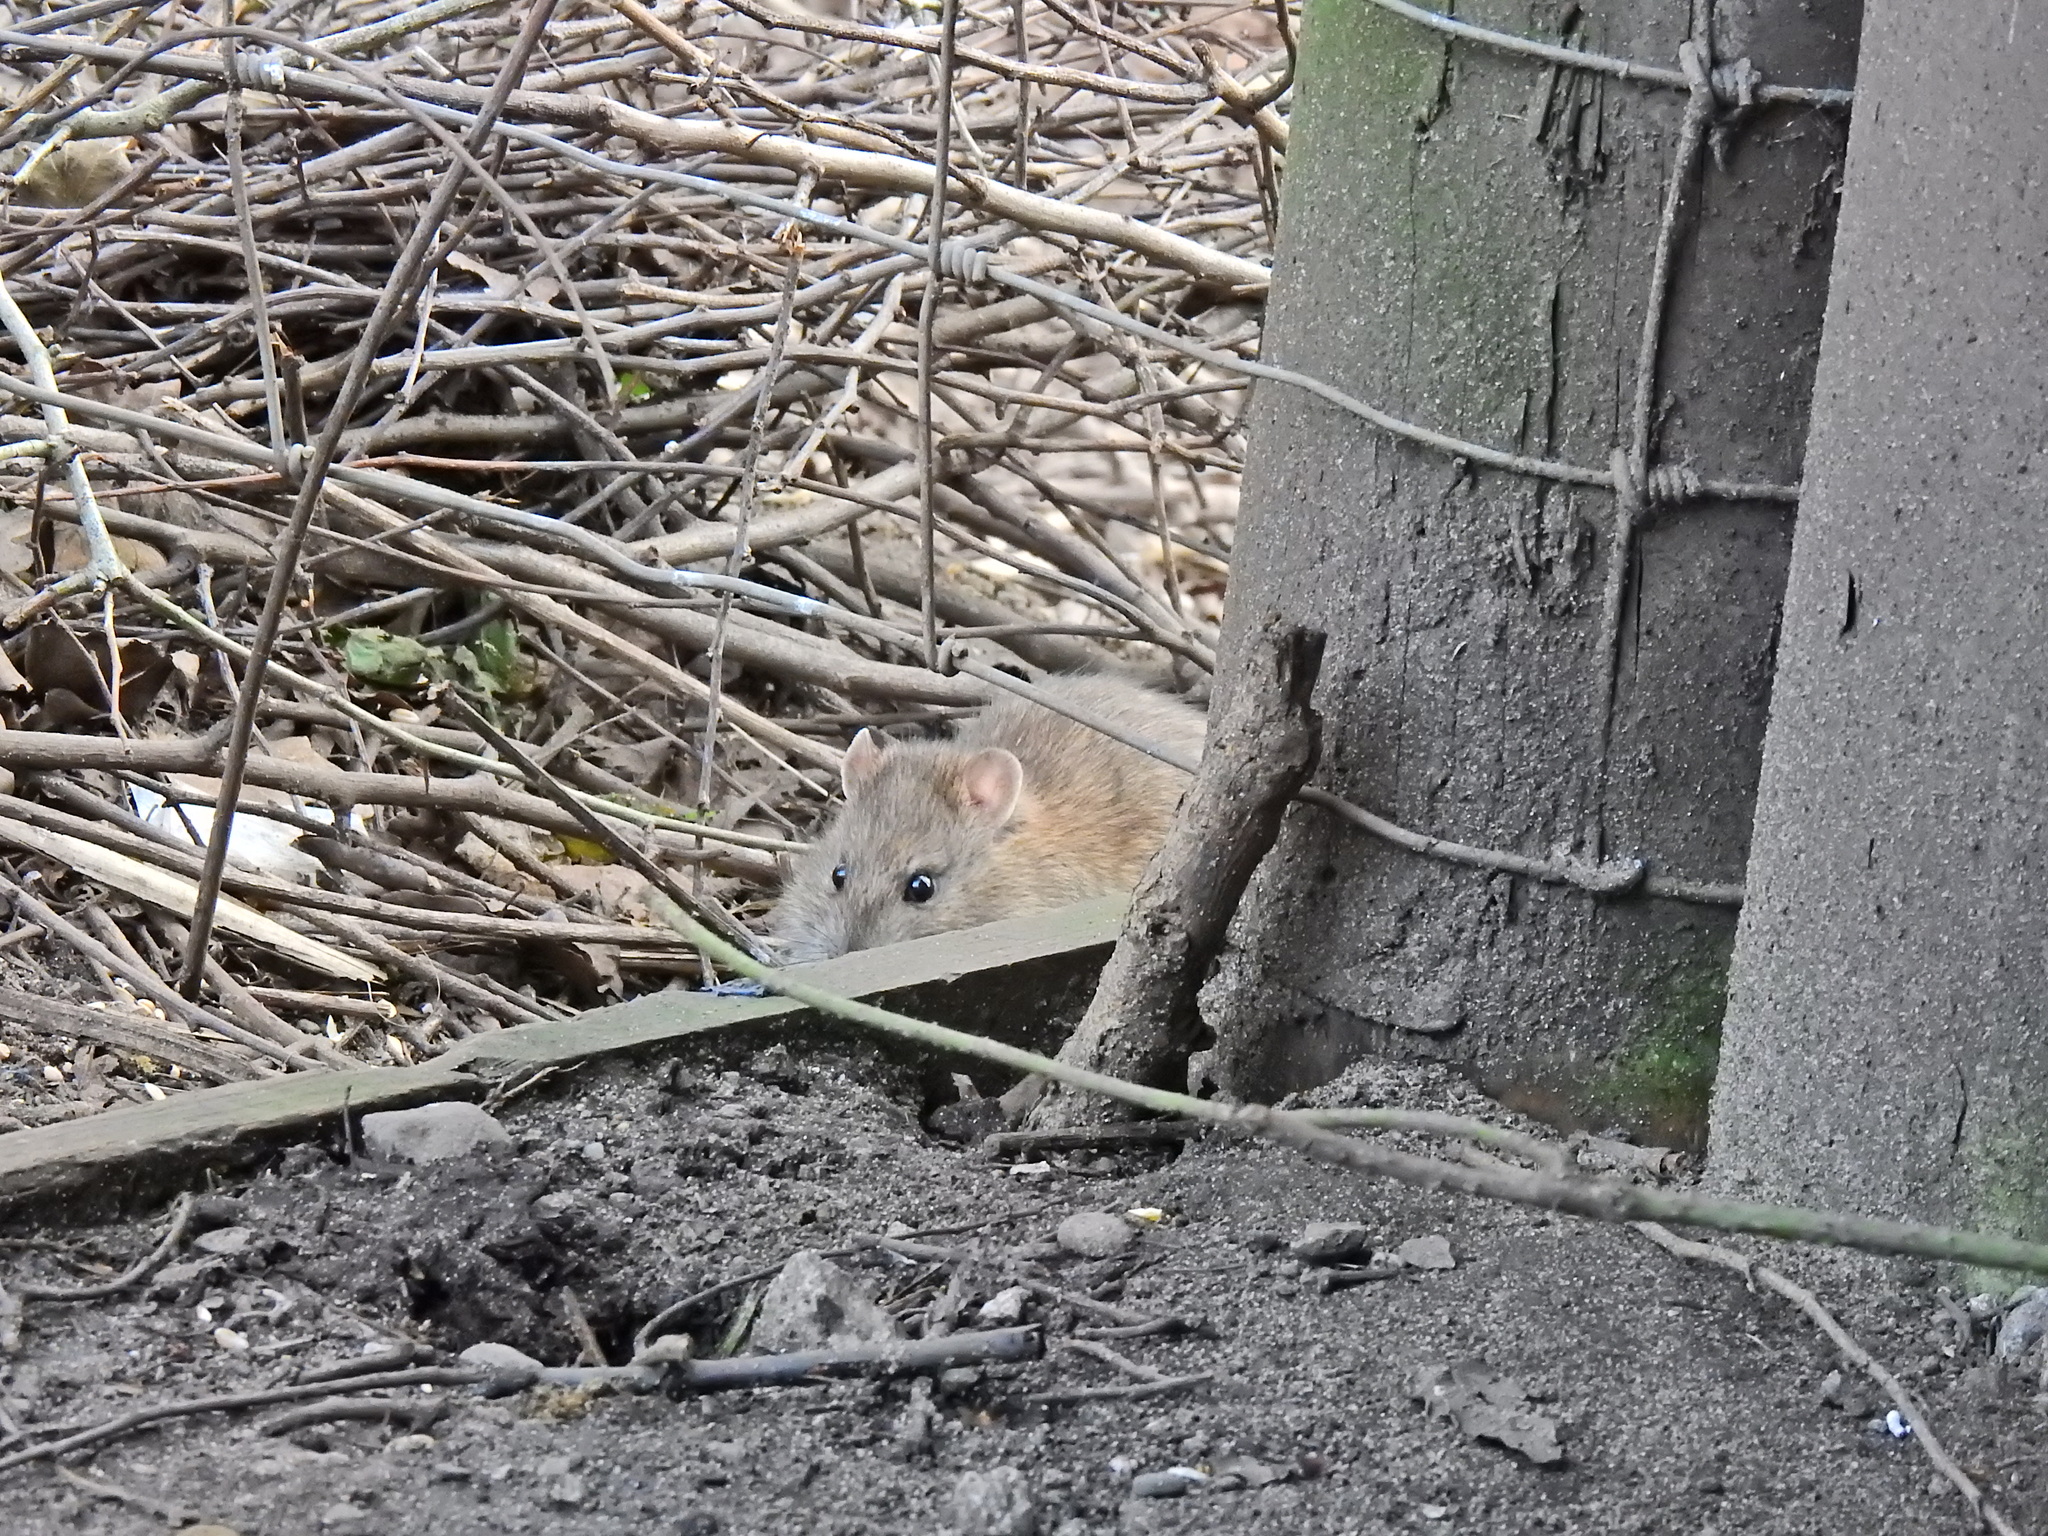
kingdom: Animalia
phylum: Chordata
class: Mammalia
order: Rodentia
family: Muridae
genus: Rattus
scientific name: Rattus norvegicus
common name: Brown rat
